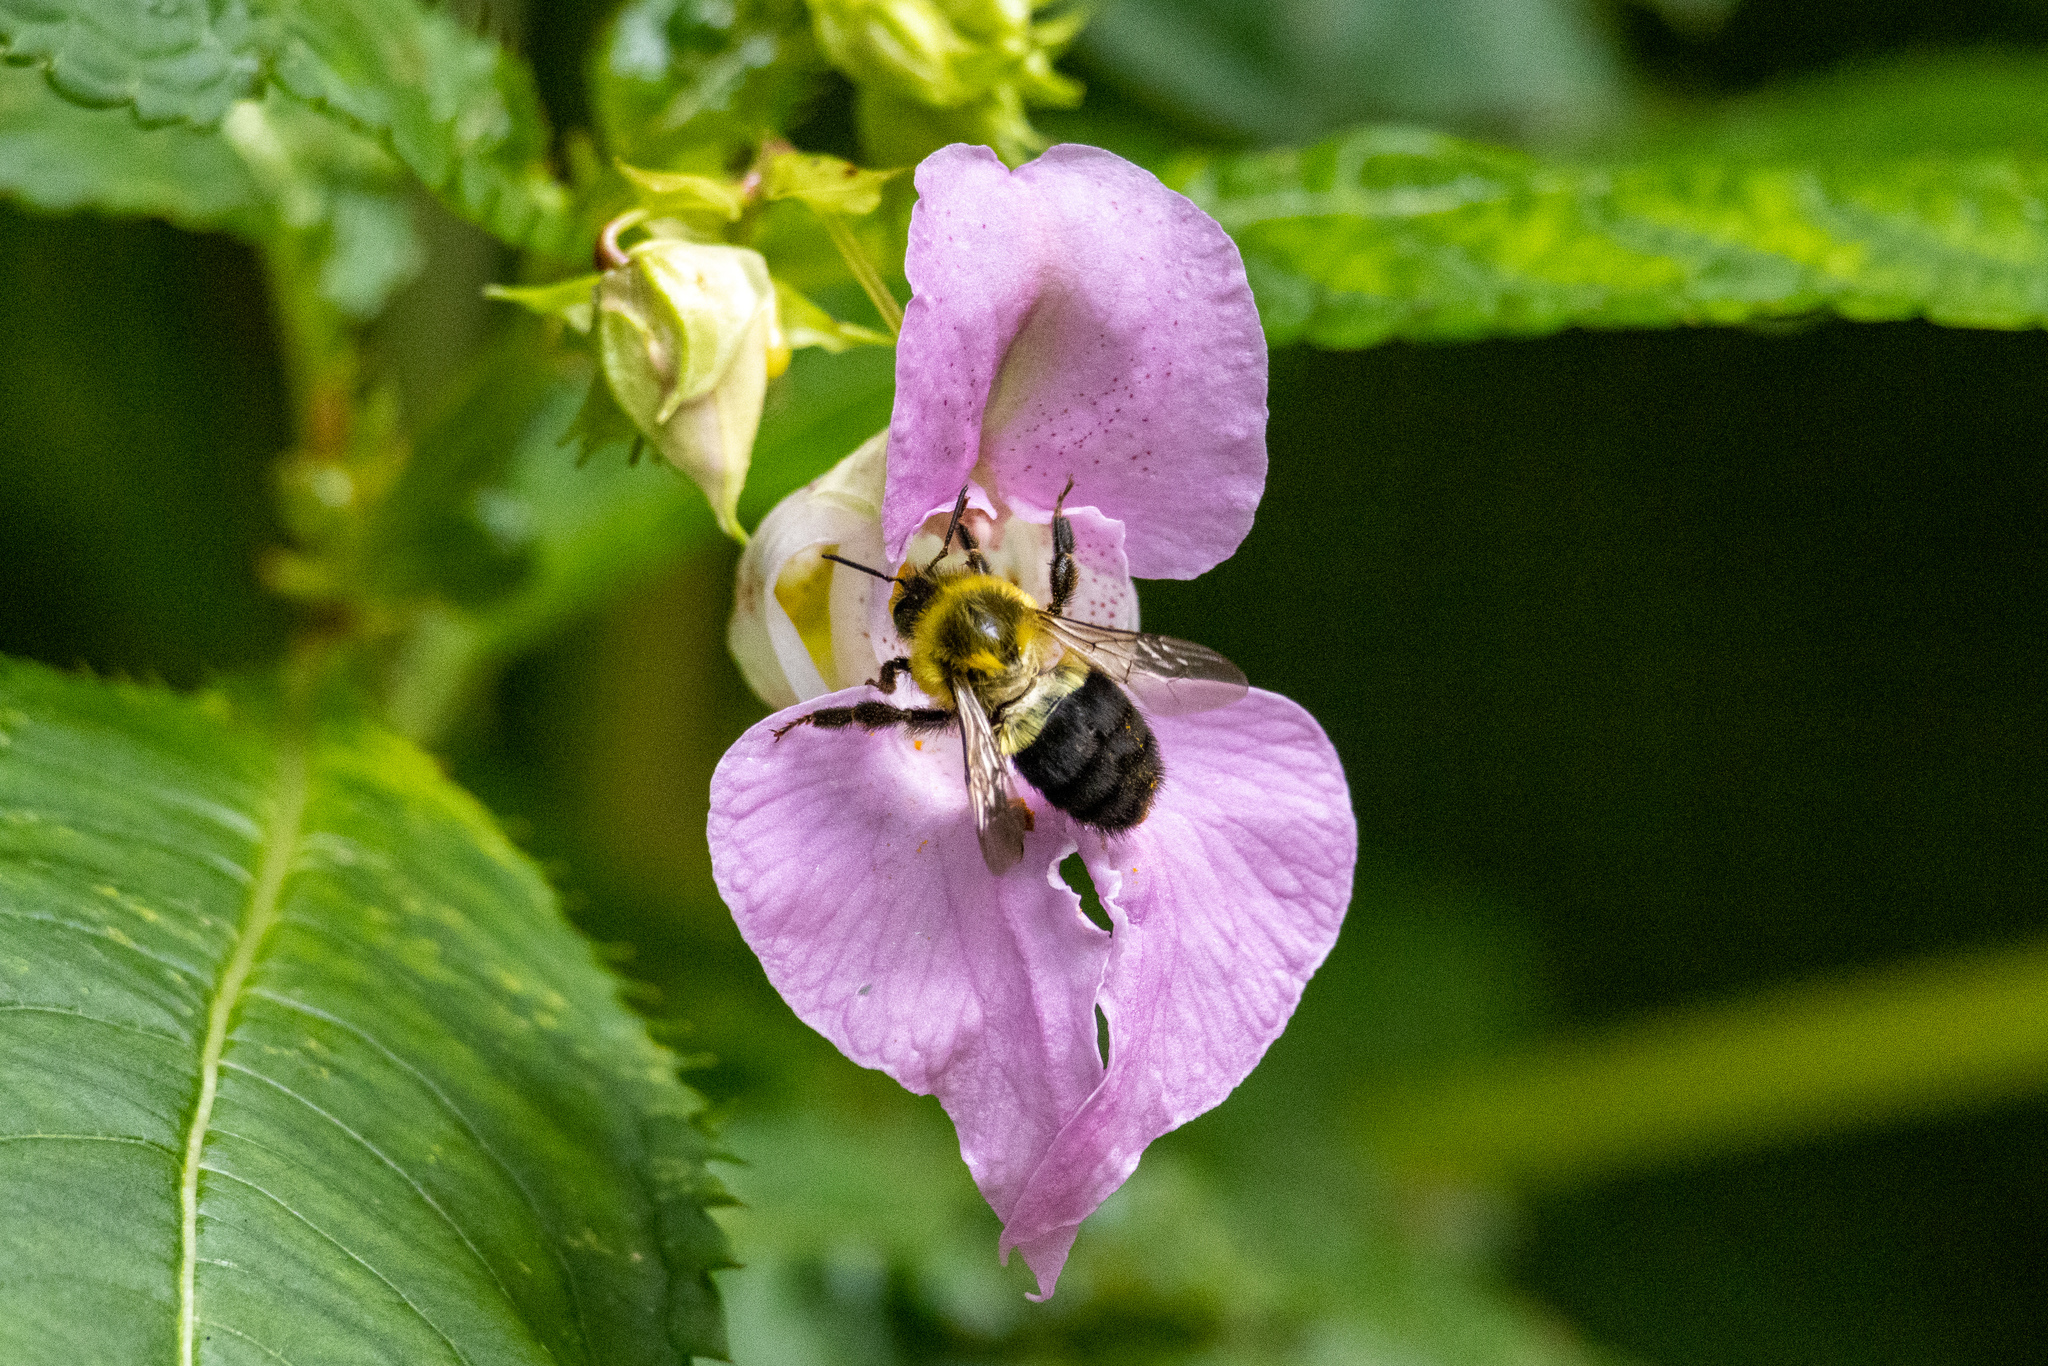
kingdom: Animalia
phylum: Arthropoda
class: Insecta
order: Hymenoptera
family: Apidae
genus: Bombus
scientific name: Bombus impatiens
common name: Common eastern bumble bee
